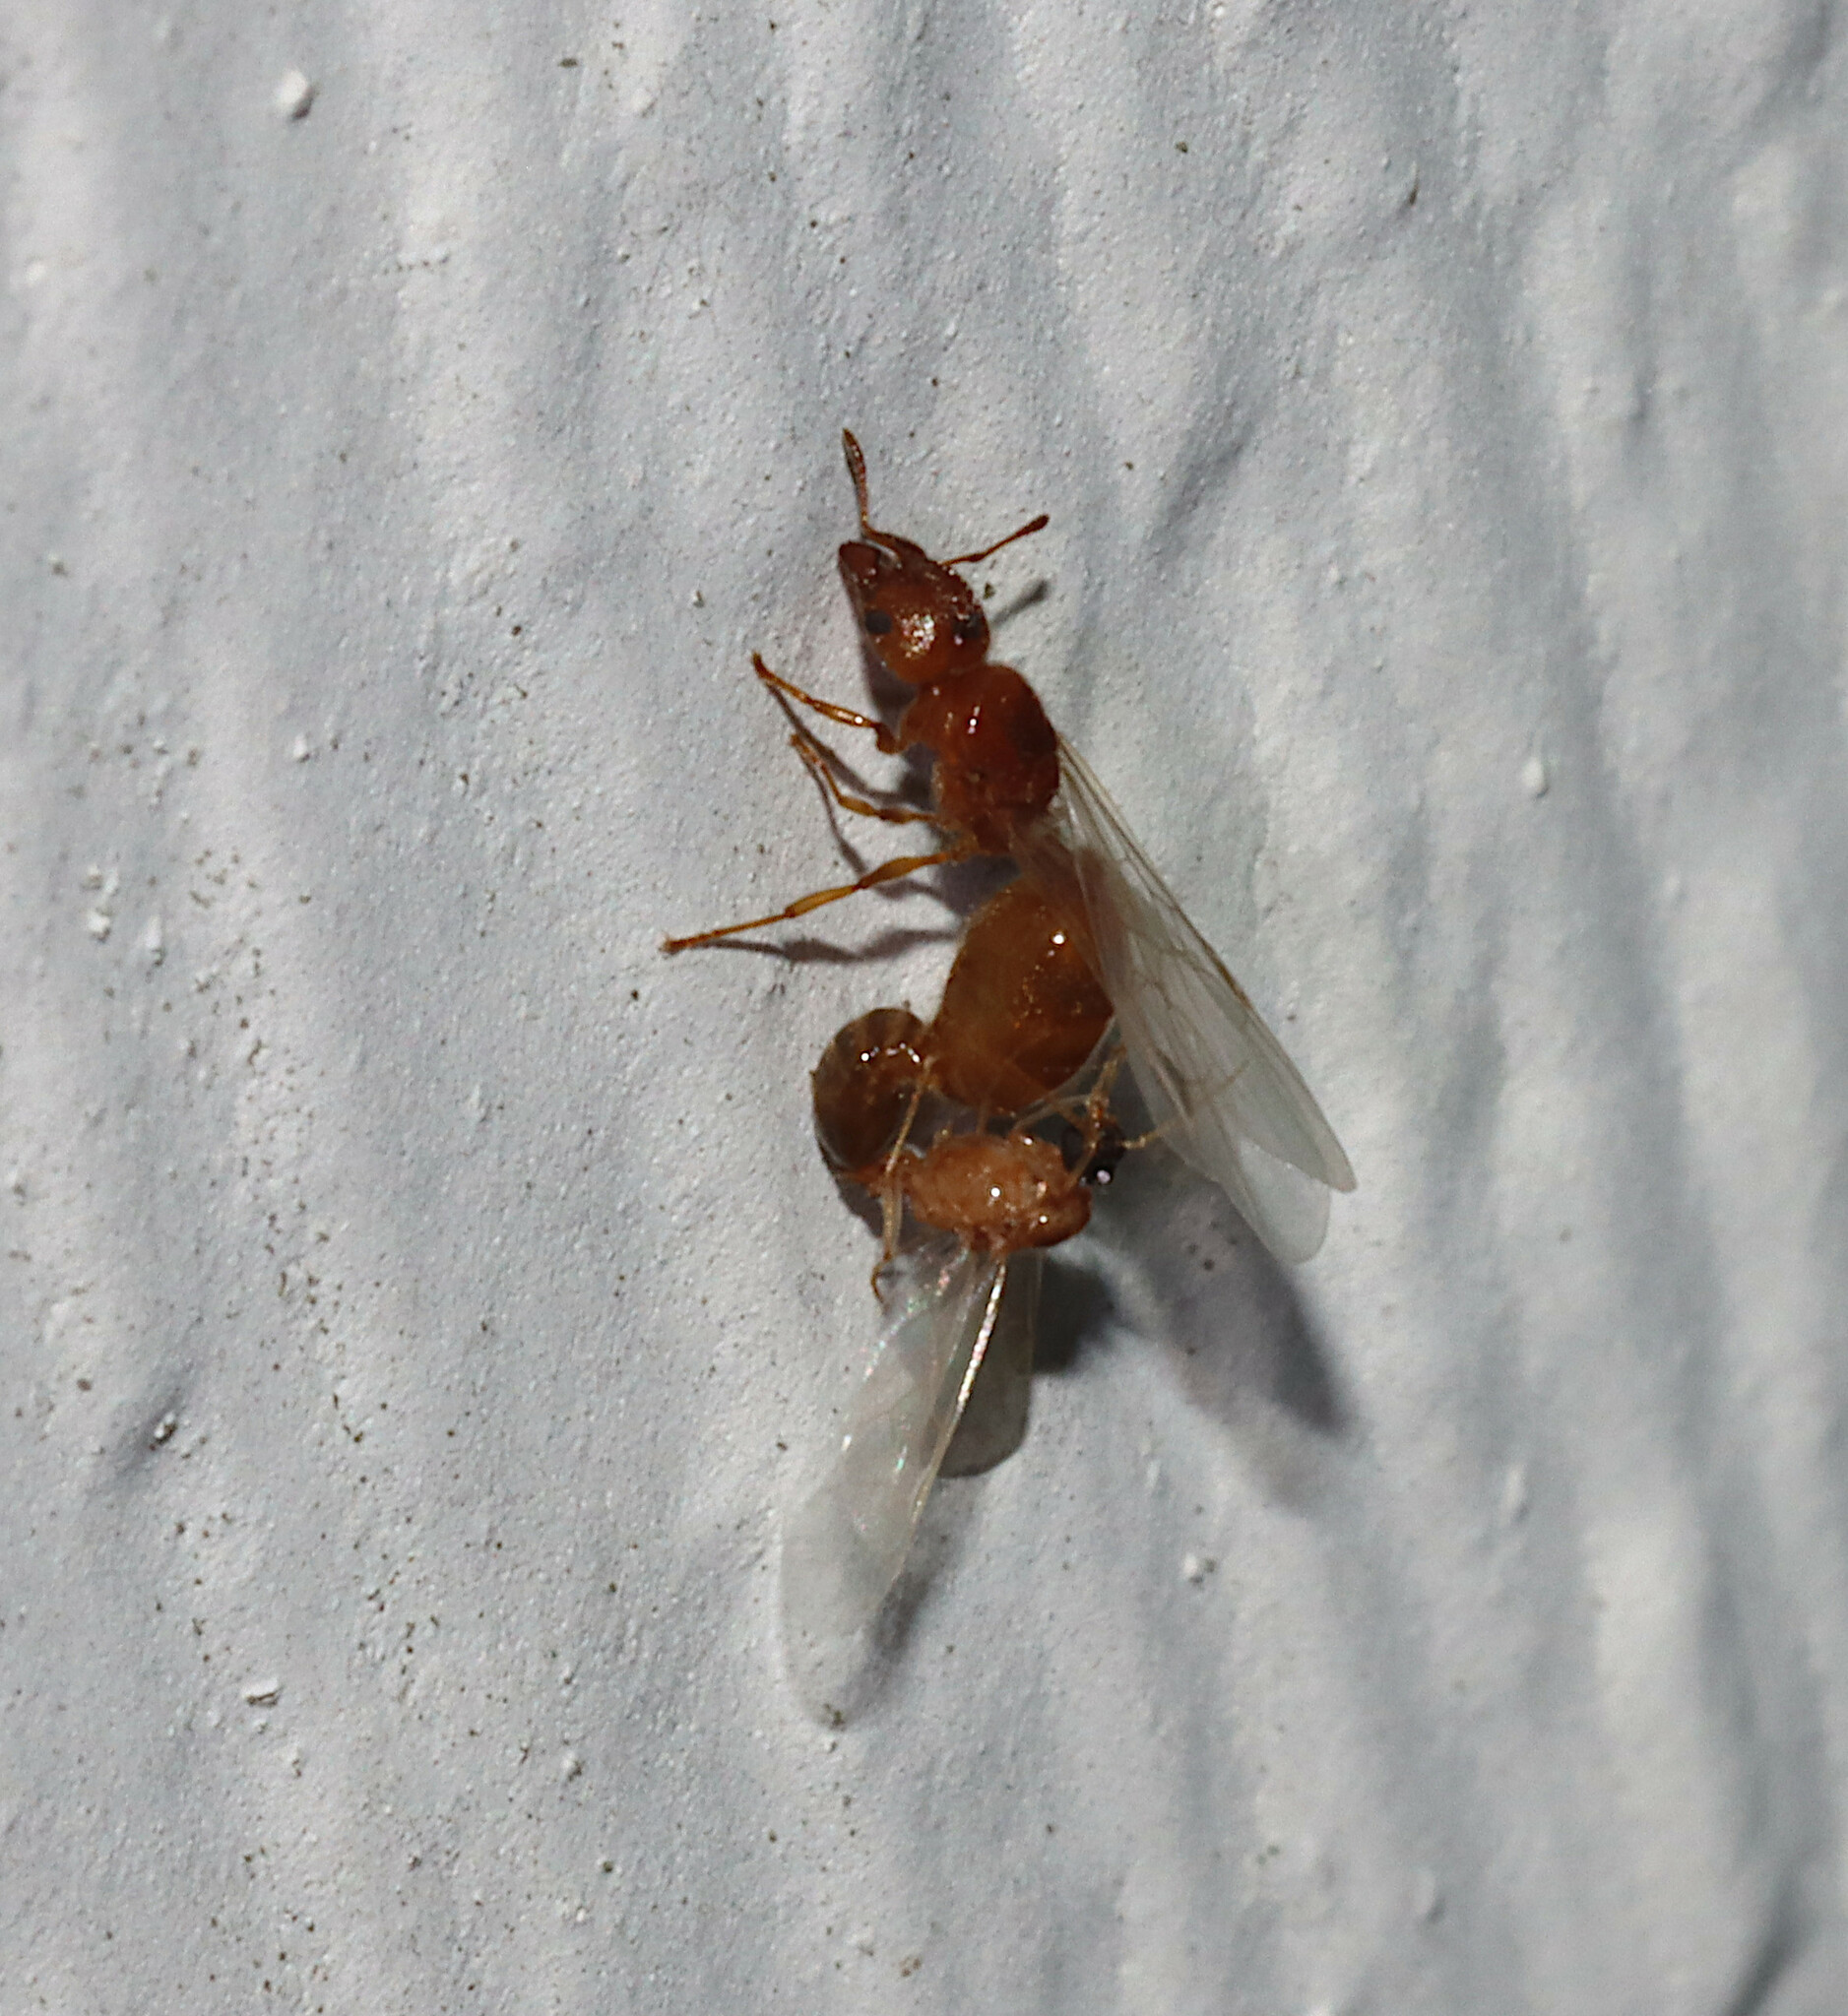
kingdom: Animalia
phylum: Arthropoda
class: Insecta
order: Hymenoptera
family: Formicidae
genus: Pheidole
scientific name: Pheidole bicarinata
